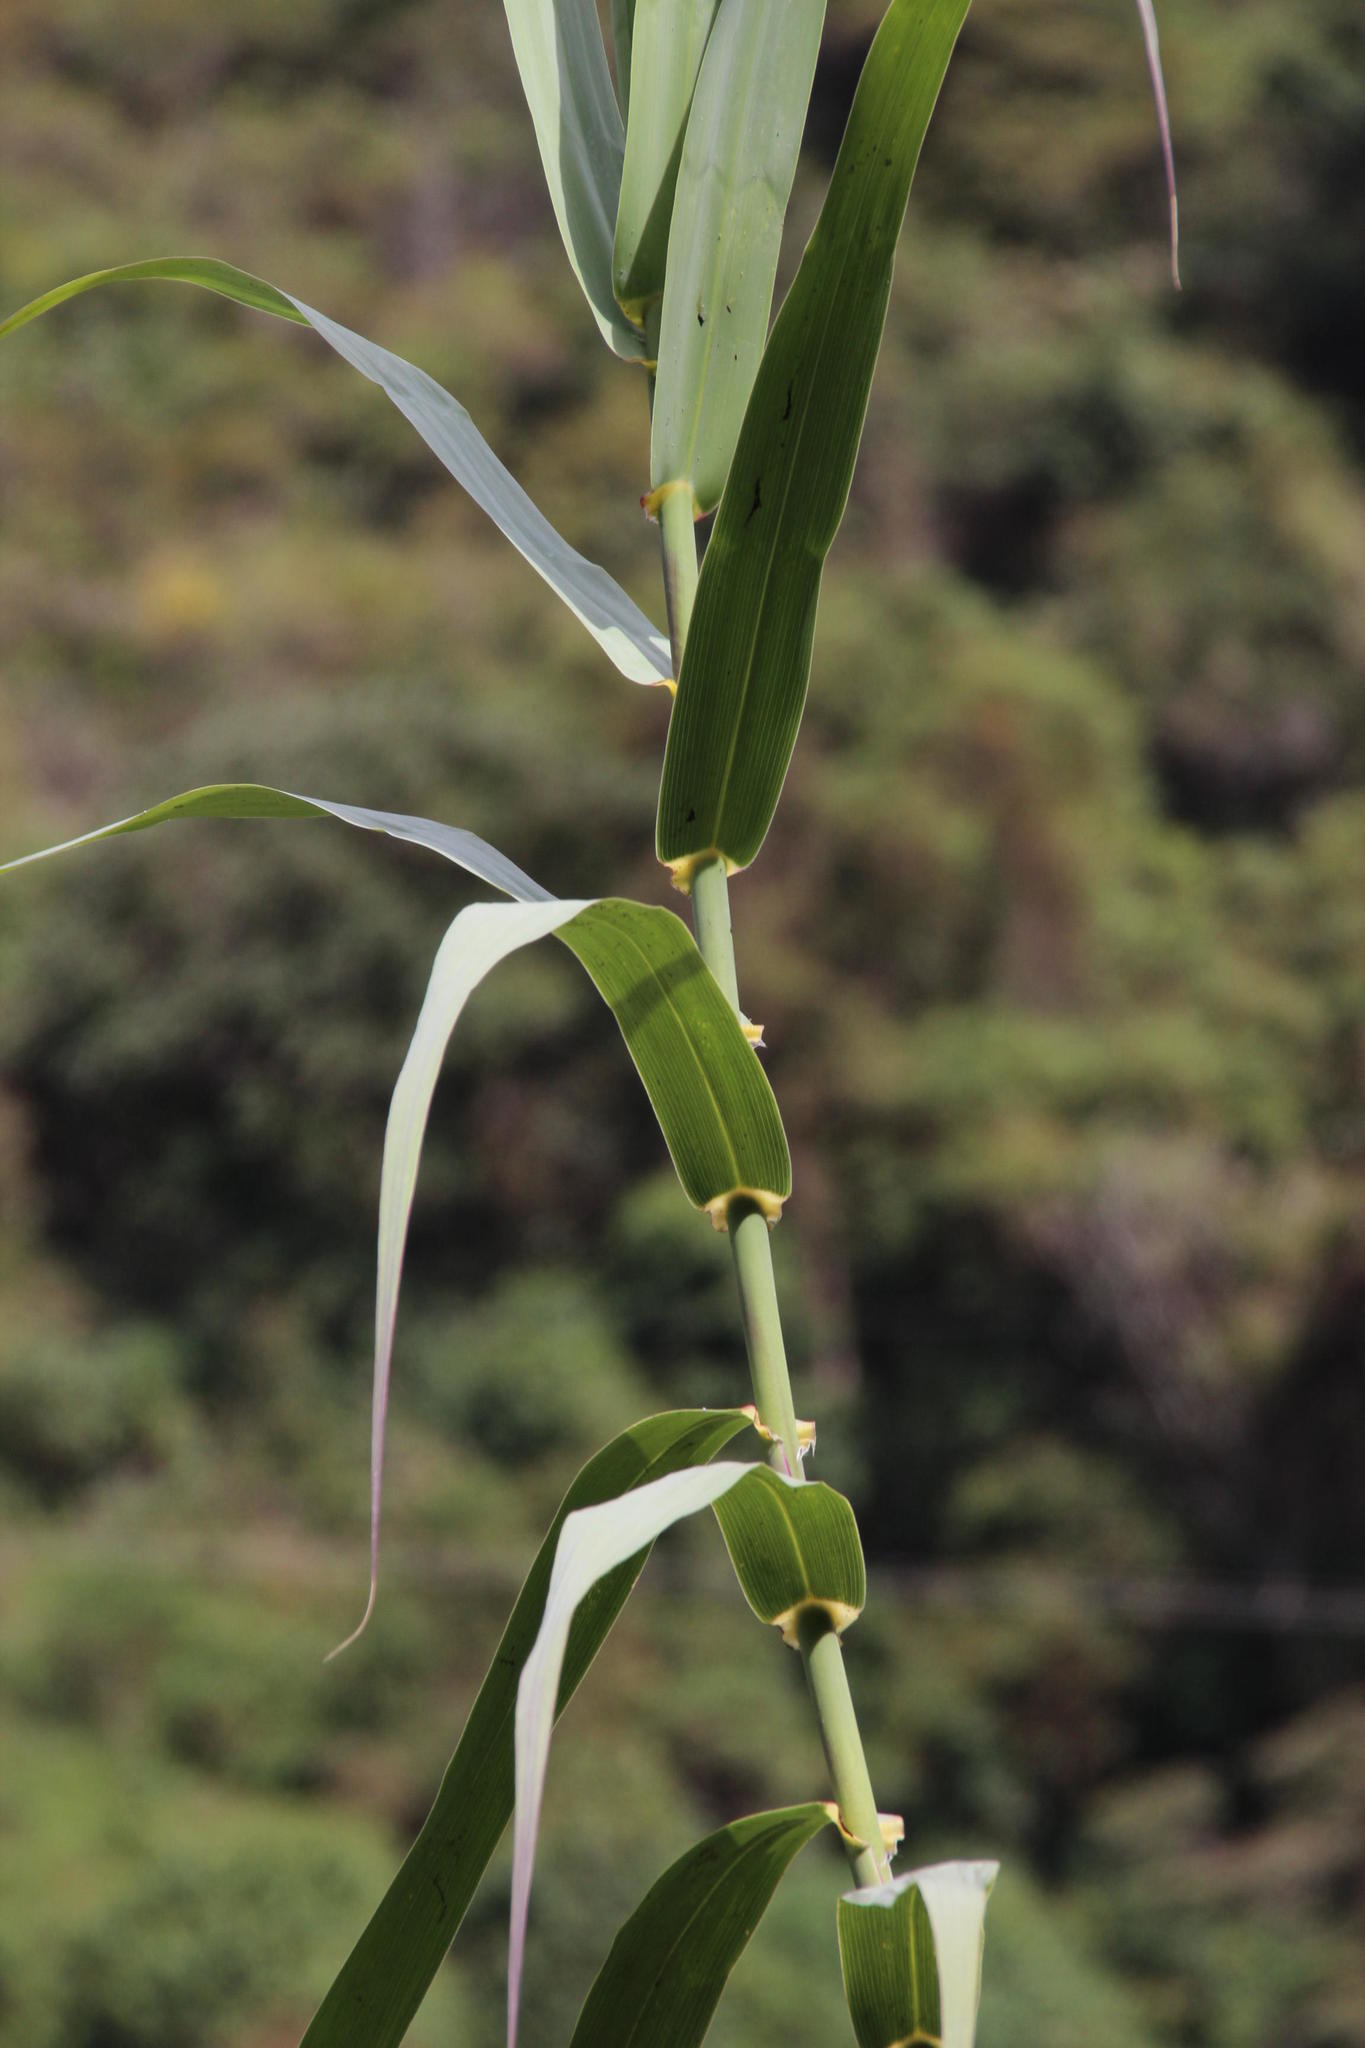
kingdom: Plantae
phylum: Tracheophyta
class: Liliopsida
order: Poales
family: Poaceae
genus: Arundo
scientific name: Arundo donax
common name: Giant reed
